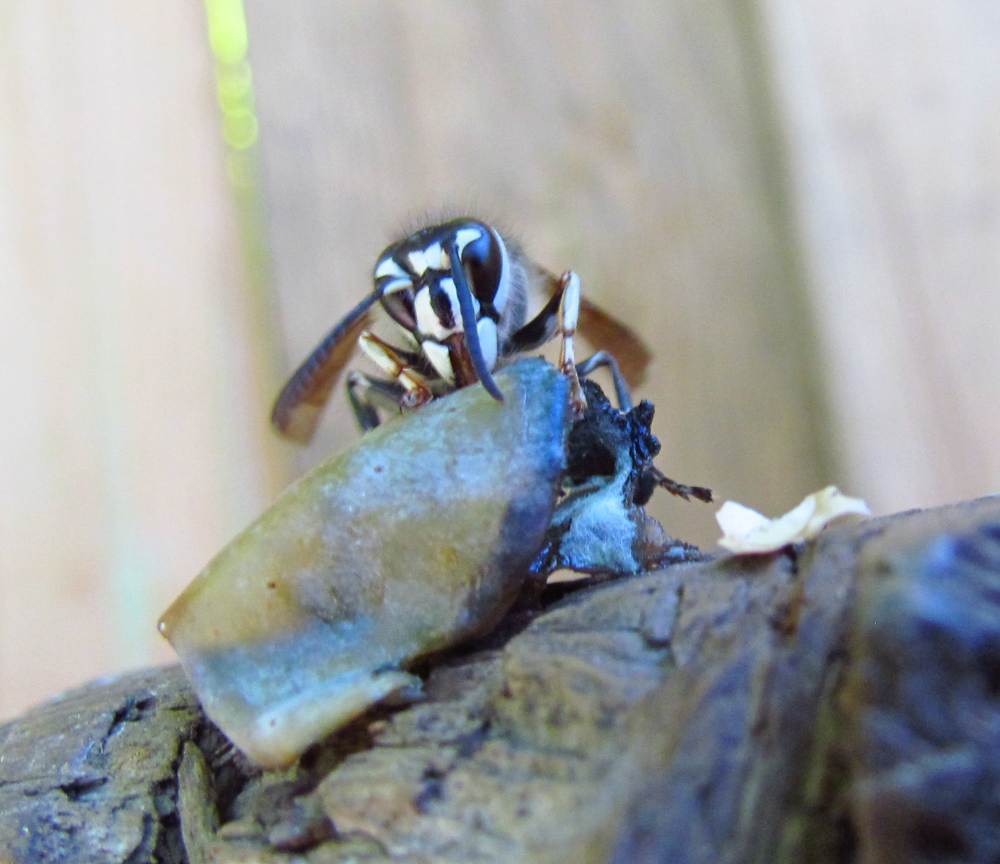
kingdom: Animalia
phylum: Arthropoda
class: Insecta
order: Hymenoptera
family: Vespidae
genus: Dolichovespula
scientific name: Dolichovespula maculata
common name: Bald-faced hornet
